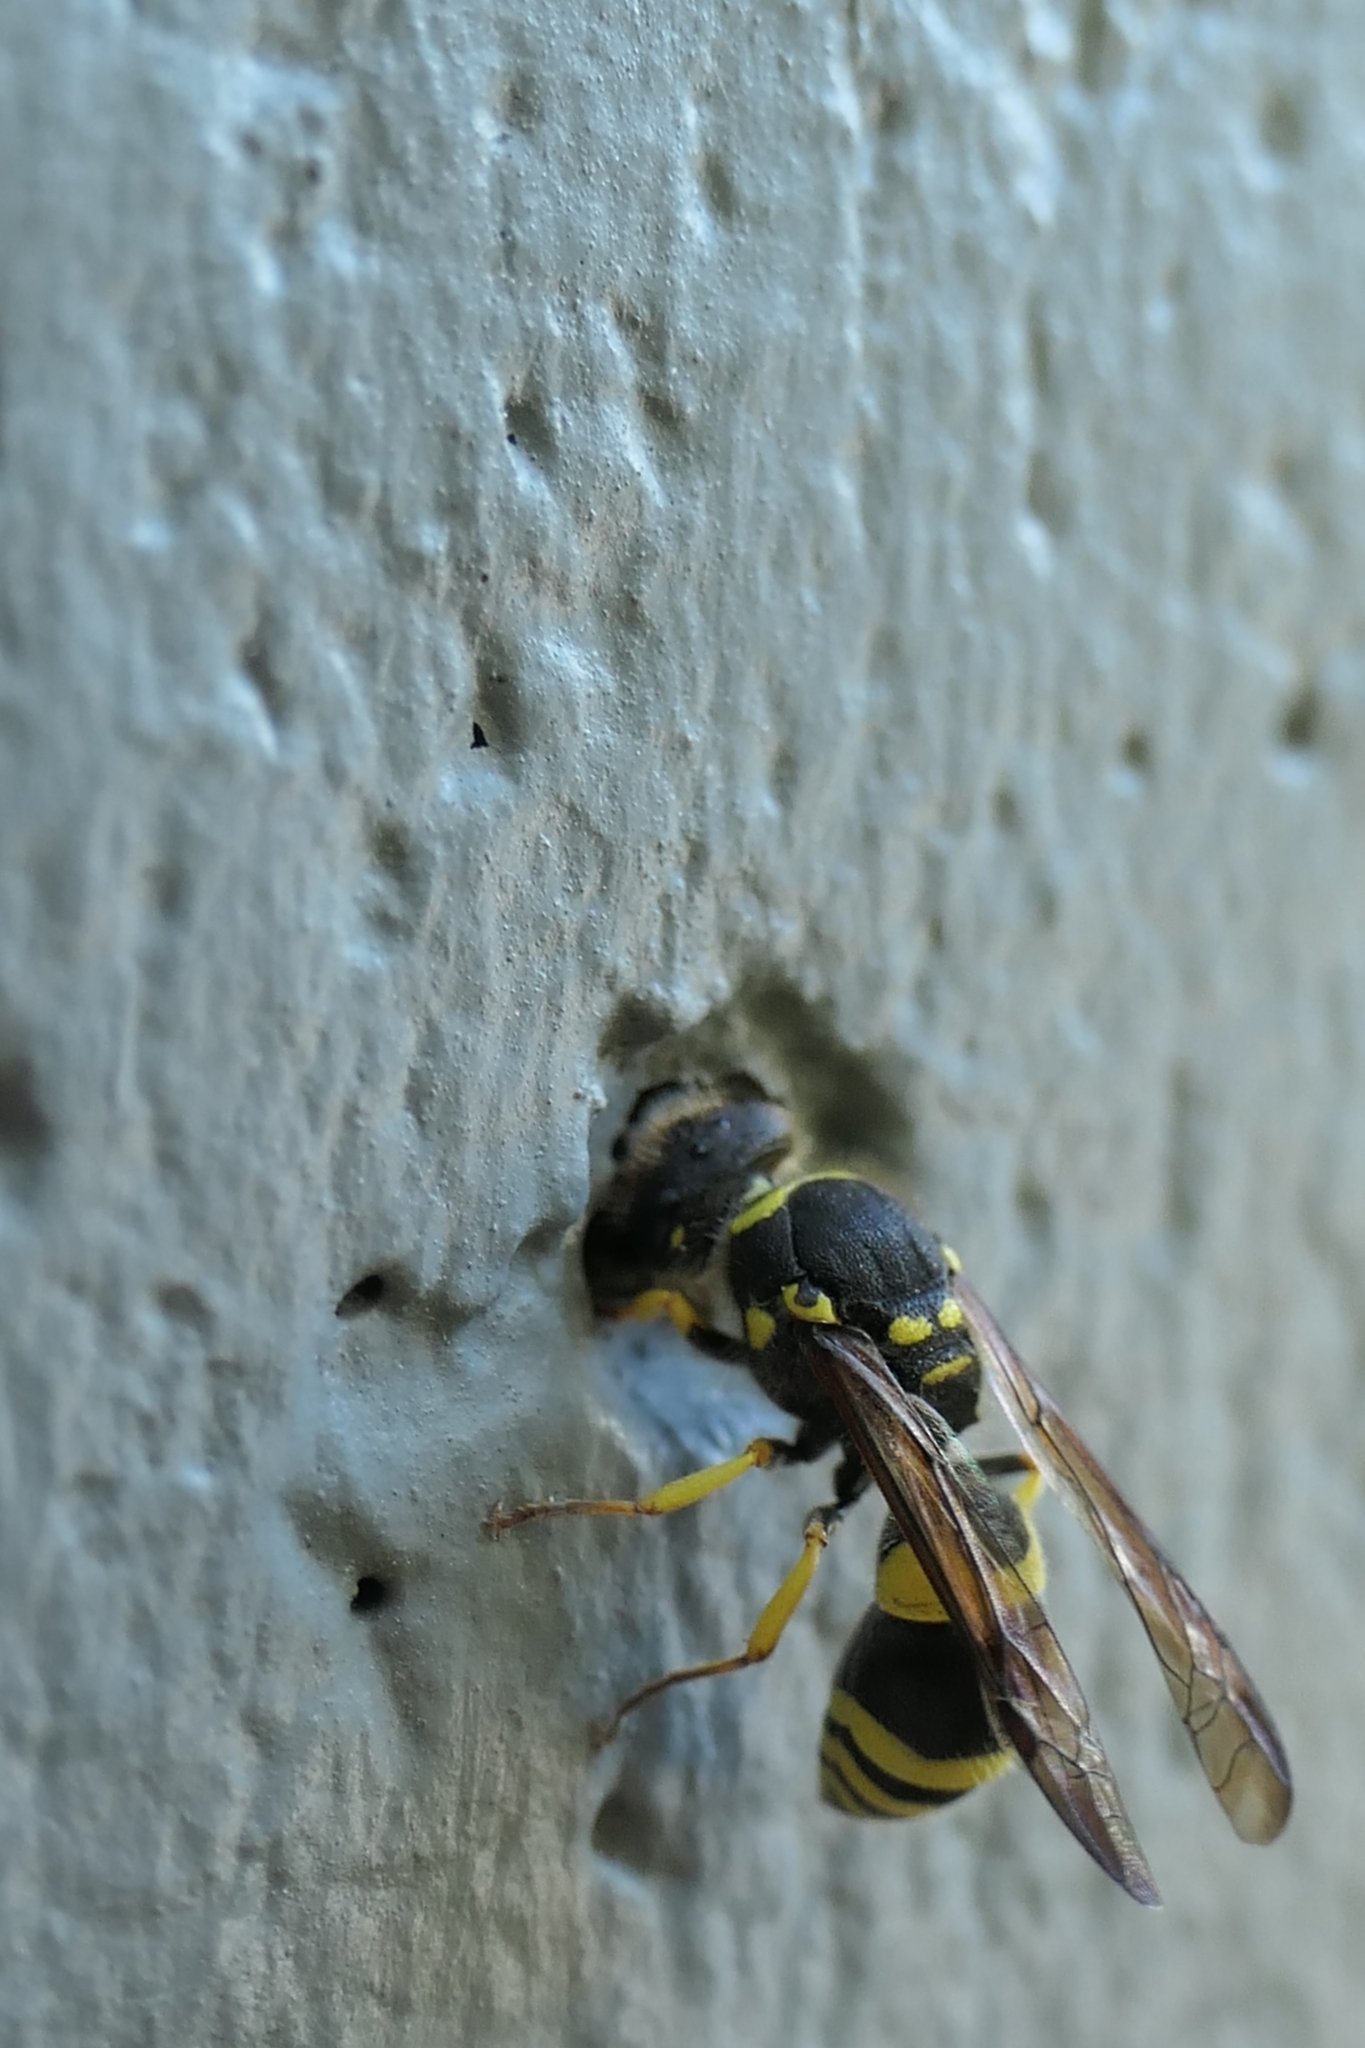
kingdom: Animalia
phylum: Arthropoda
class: Insecta
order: Hymenoptera
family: Vespidae
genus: Ancistrocerus
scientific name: Ancistrocerus gazella
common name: European tube wasp
